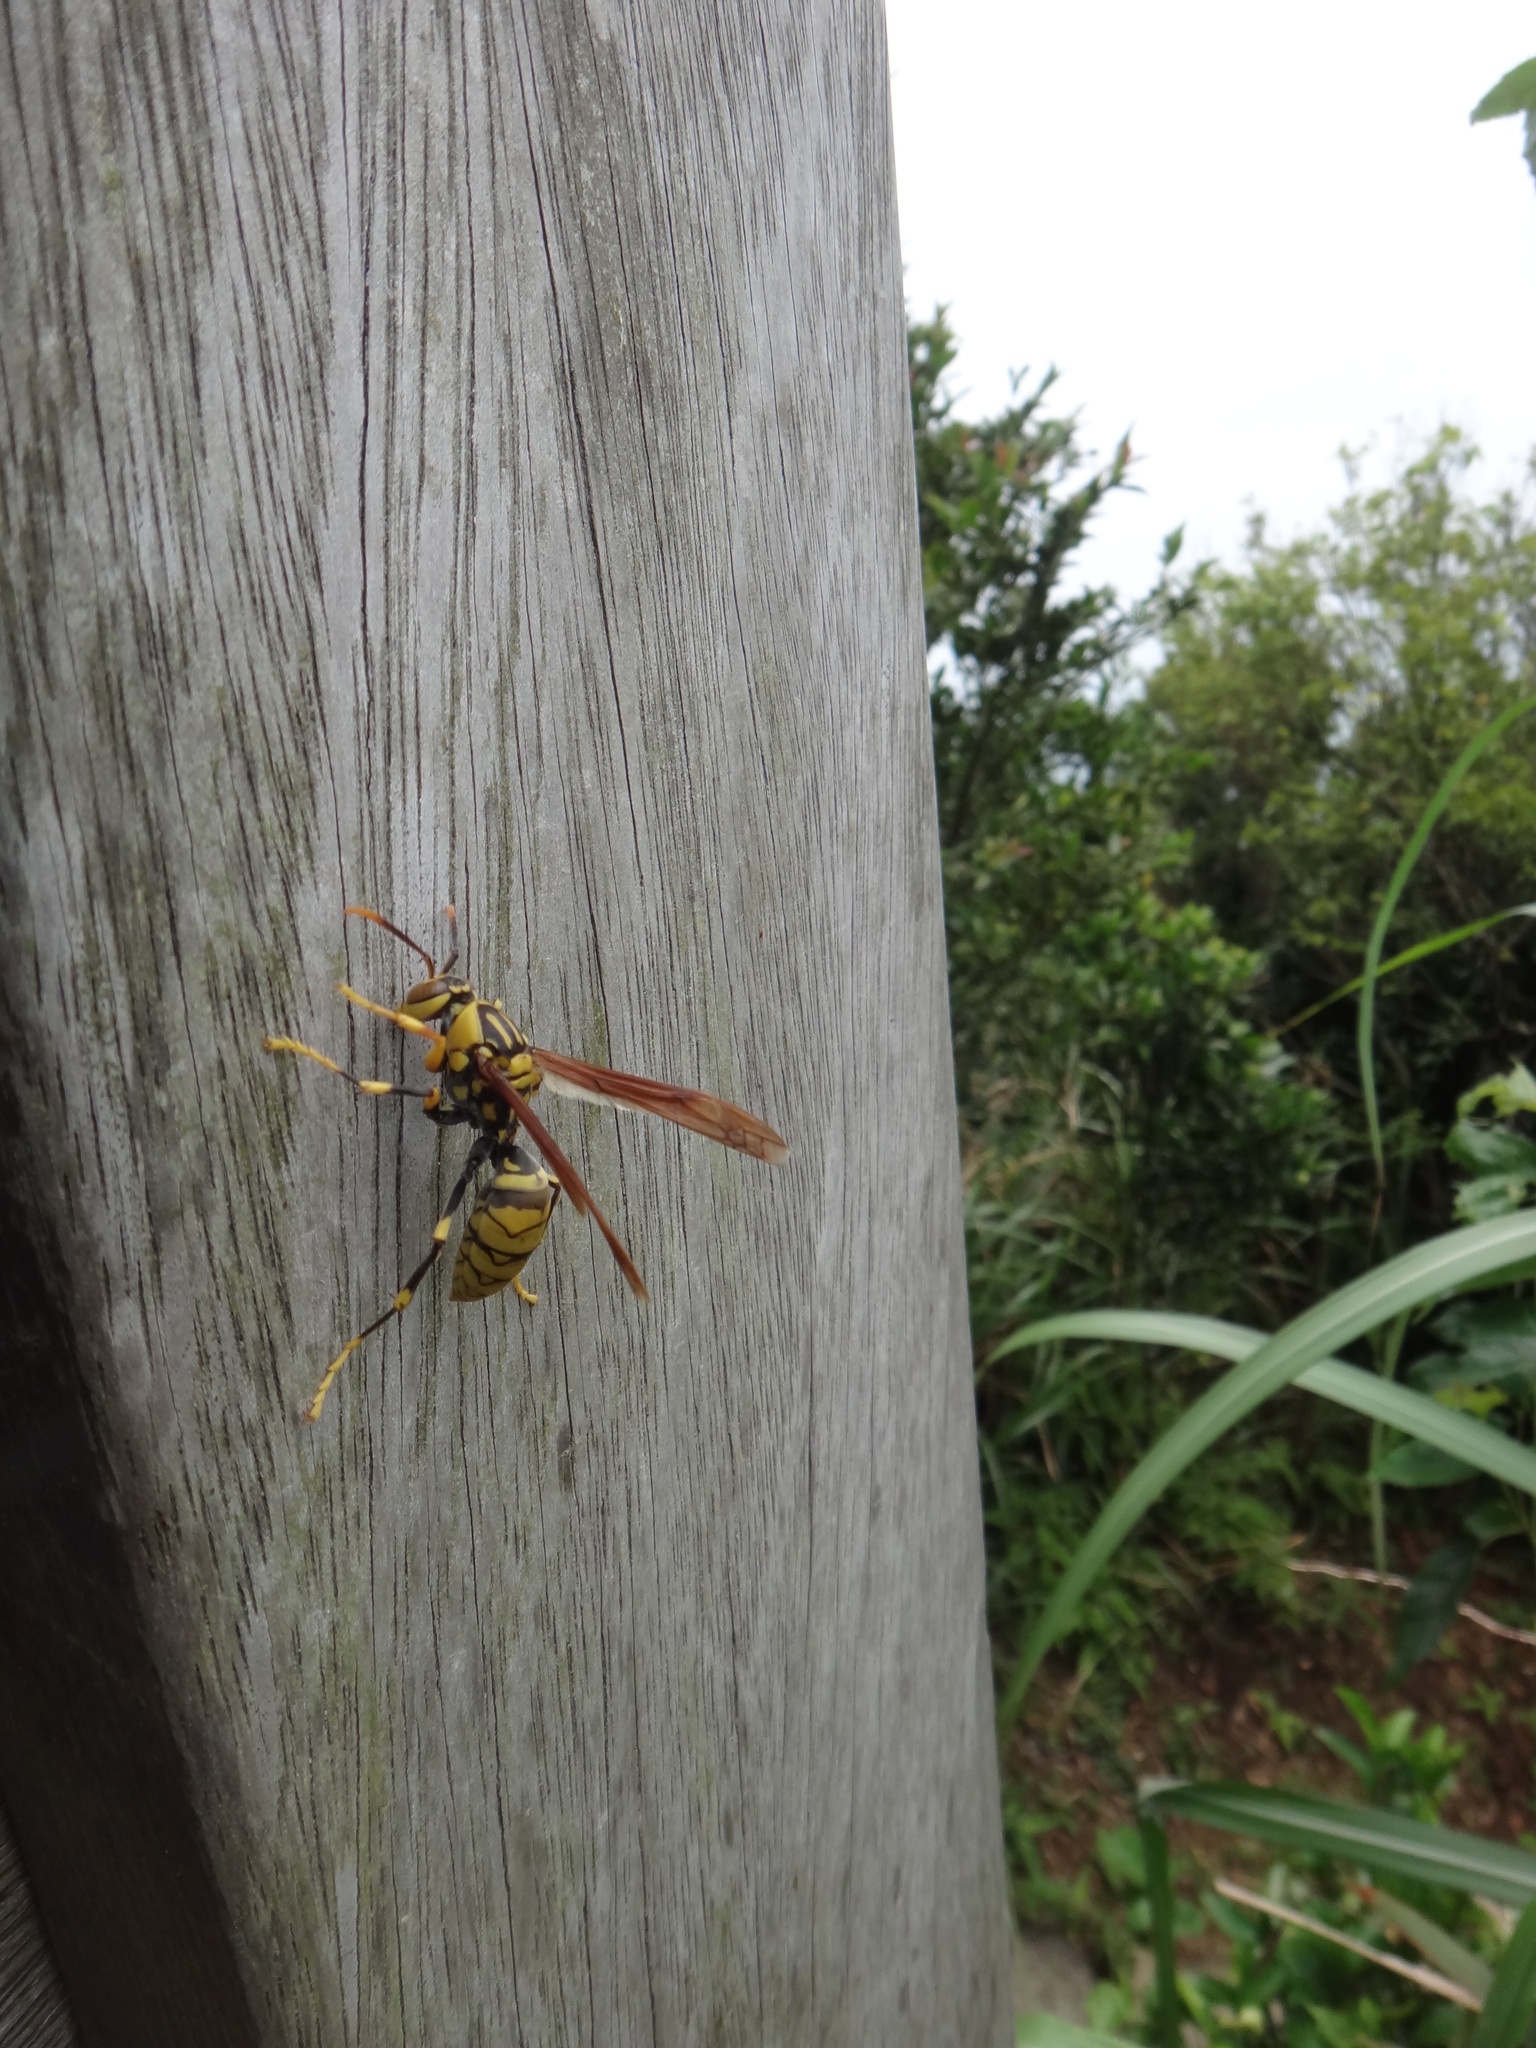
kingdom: Animalia
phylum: Arthropoda
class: Insecta
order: Hymenoptera
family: Eumenidae
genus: Polistes
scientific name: Polistes rothneyi
